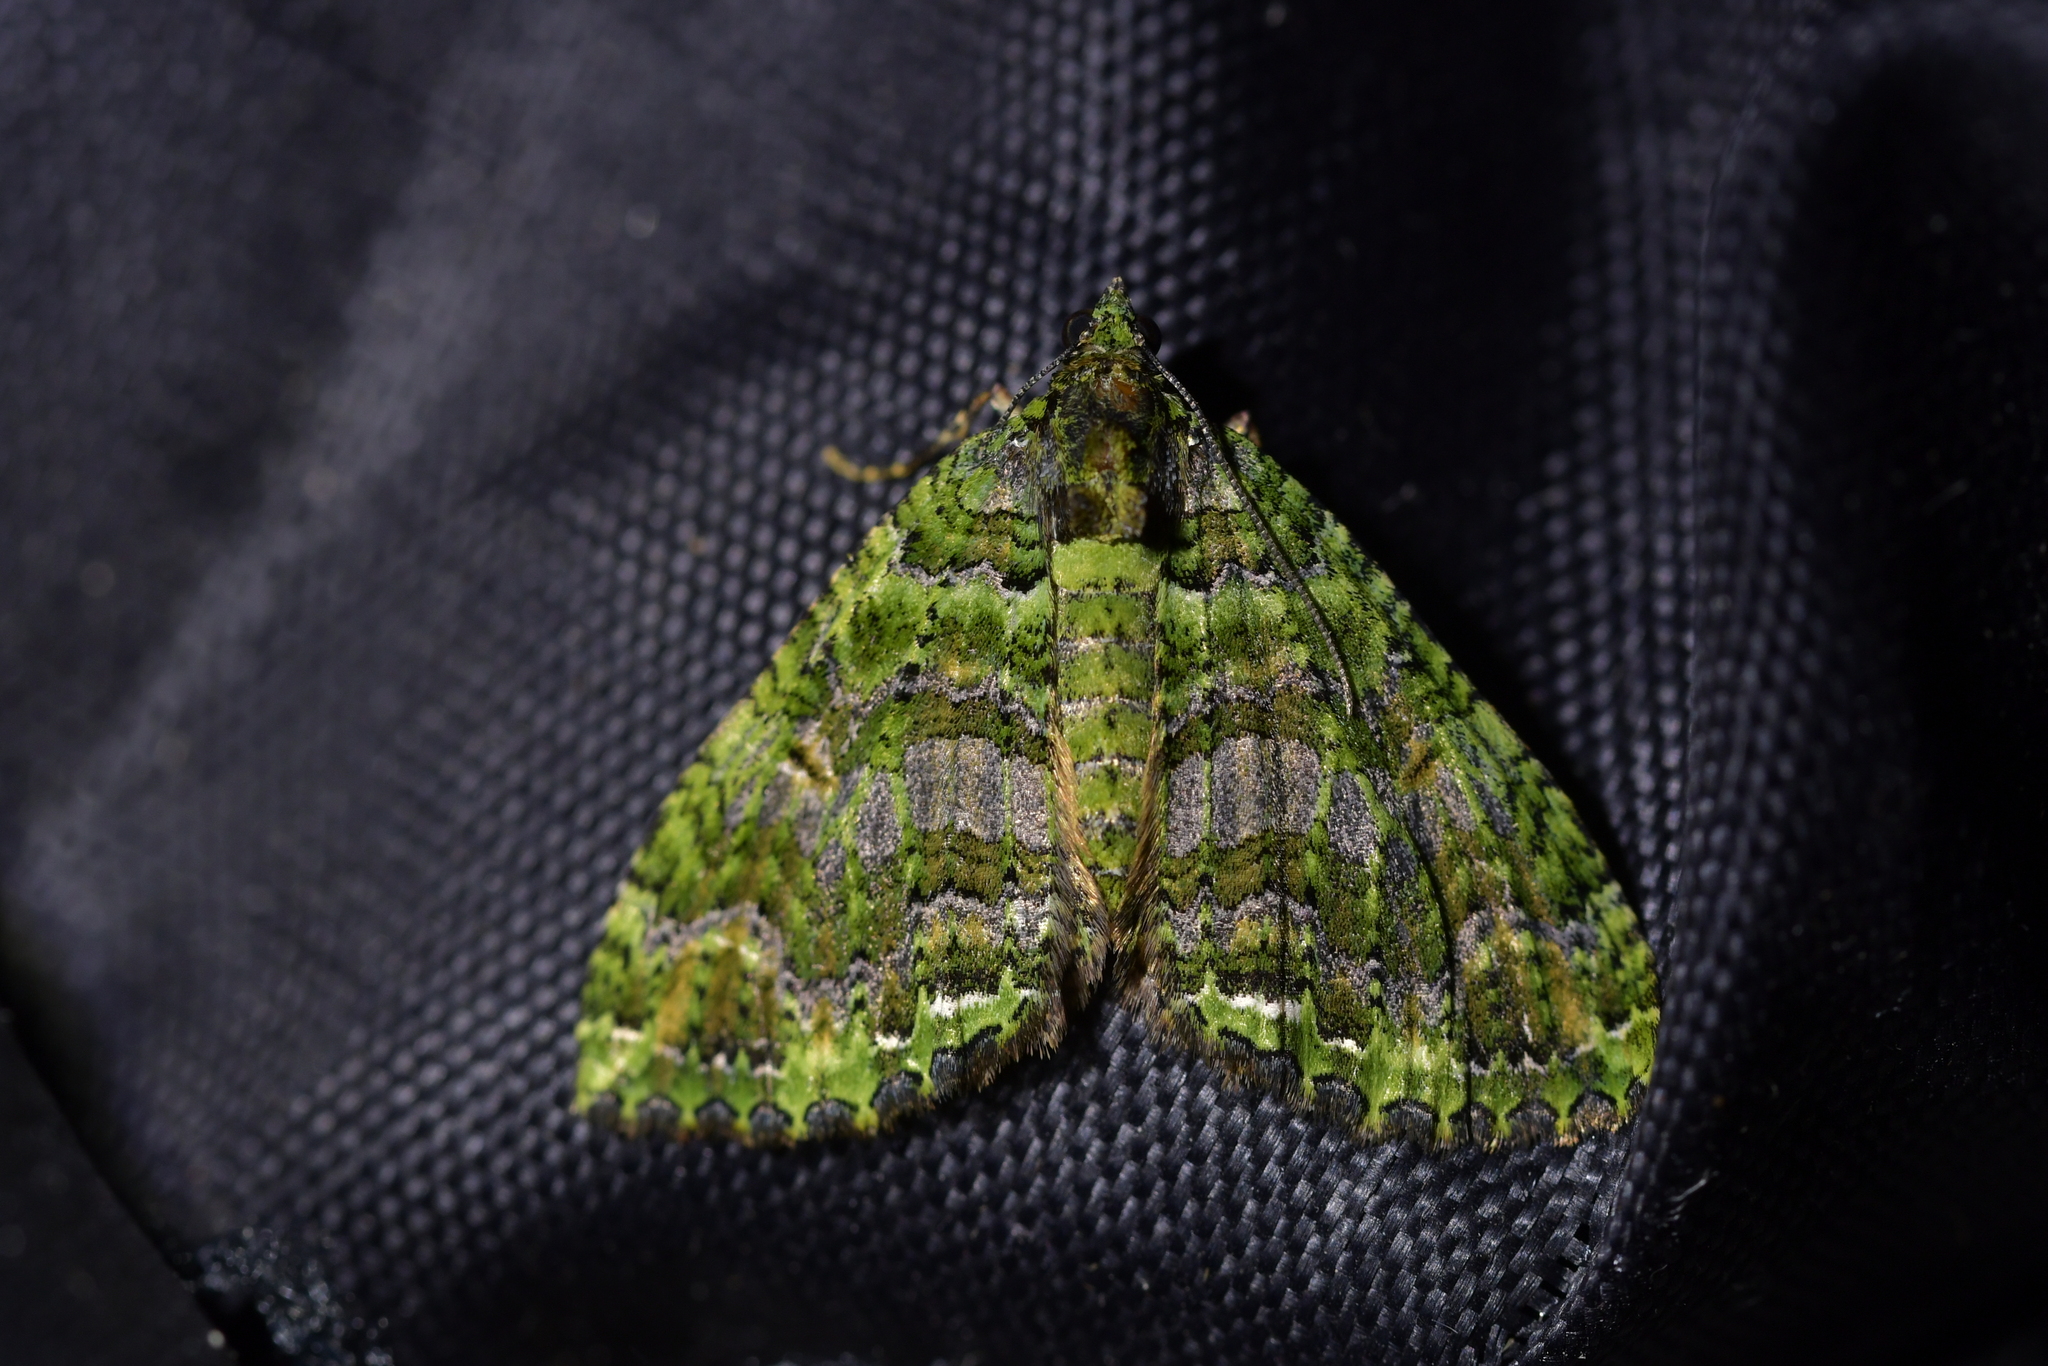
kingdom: Animalia
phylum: Arthropoda
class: Insecta
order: Lepidoptera
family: Geometridae
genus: Austrocidaria
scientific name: Austrocidaria similata
